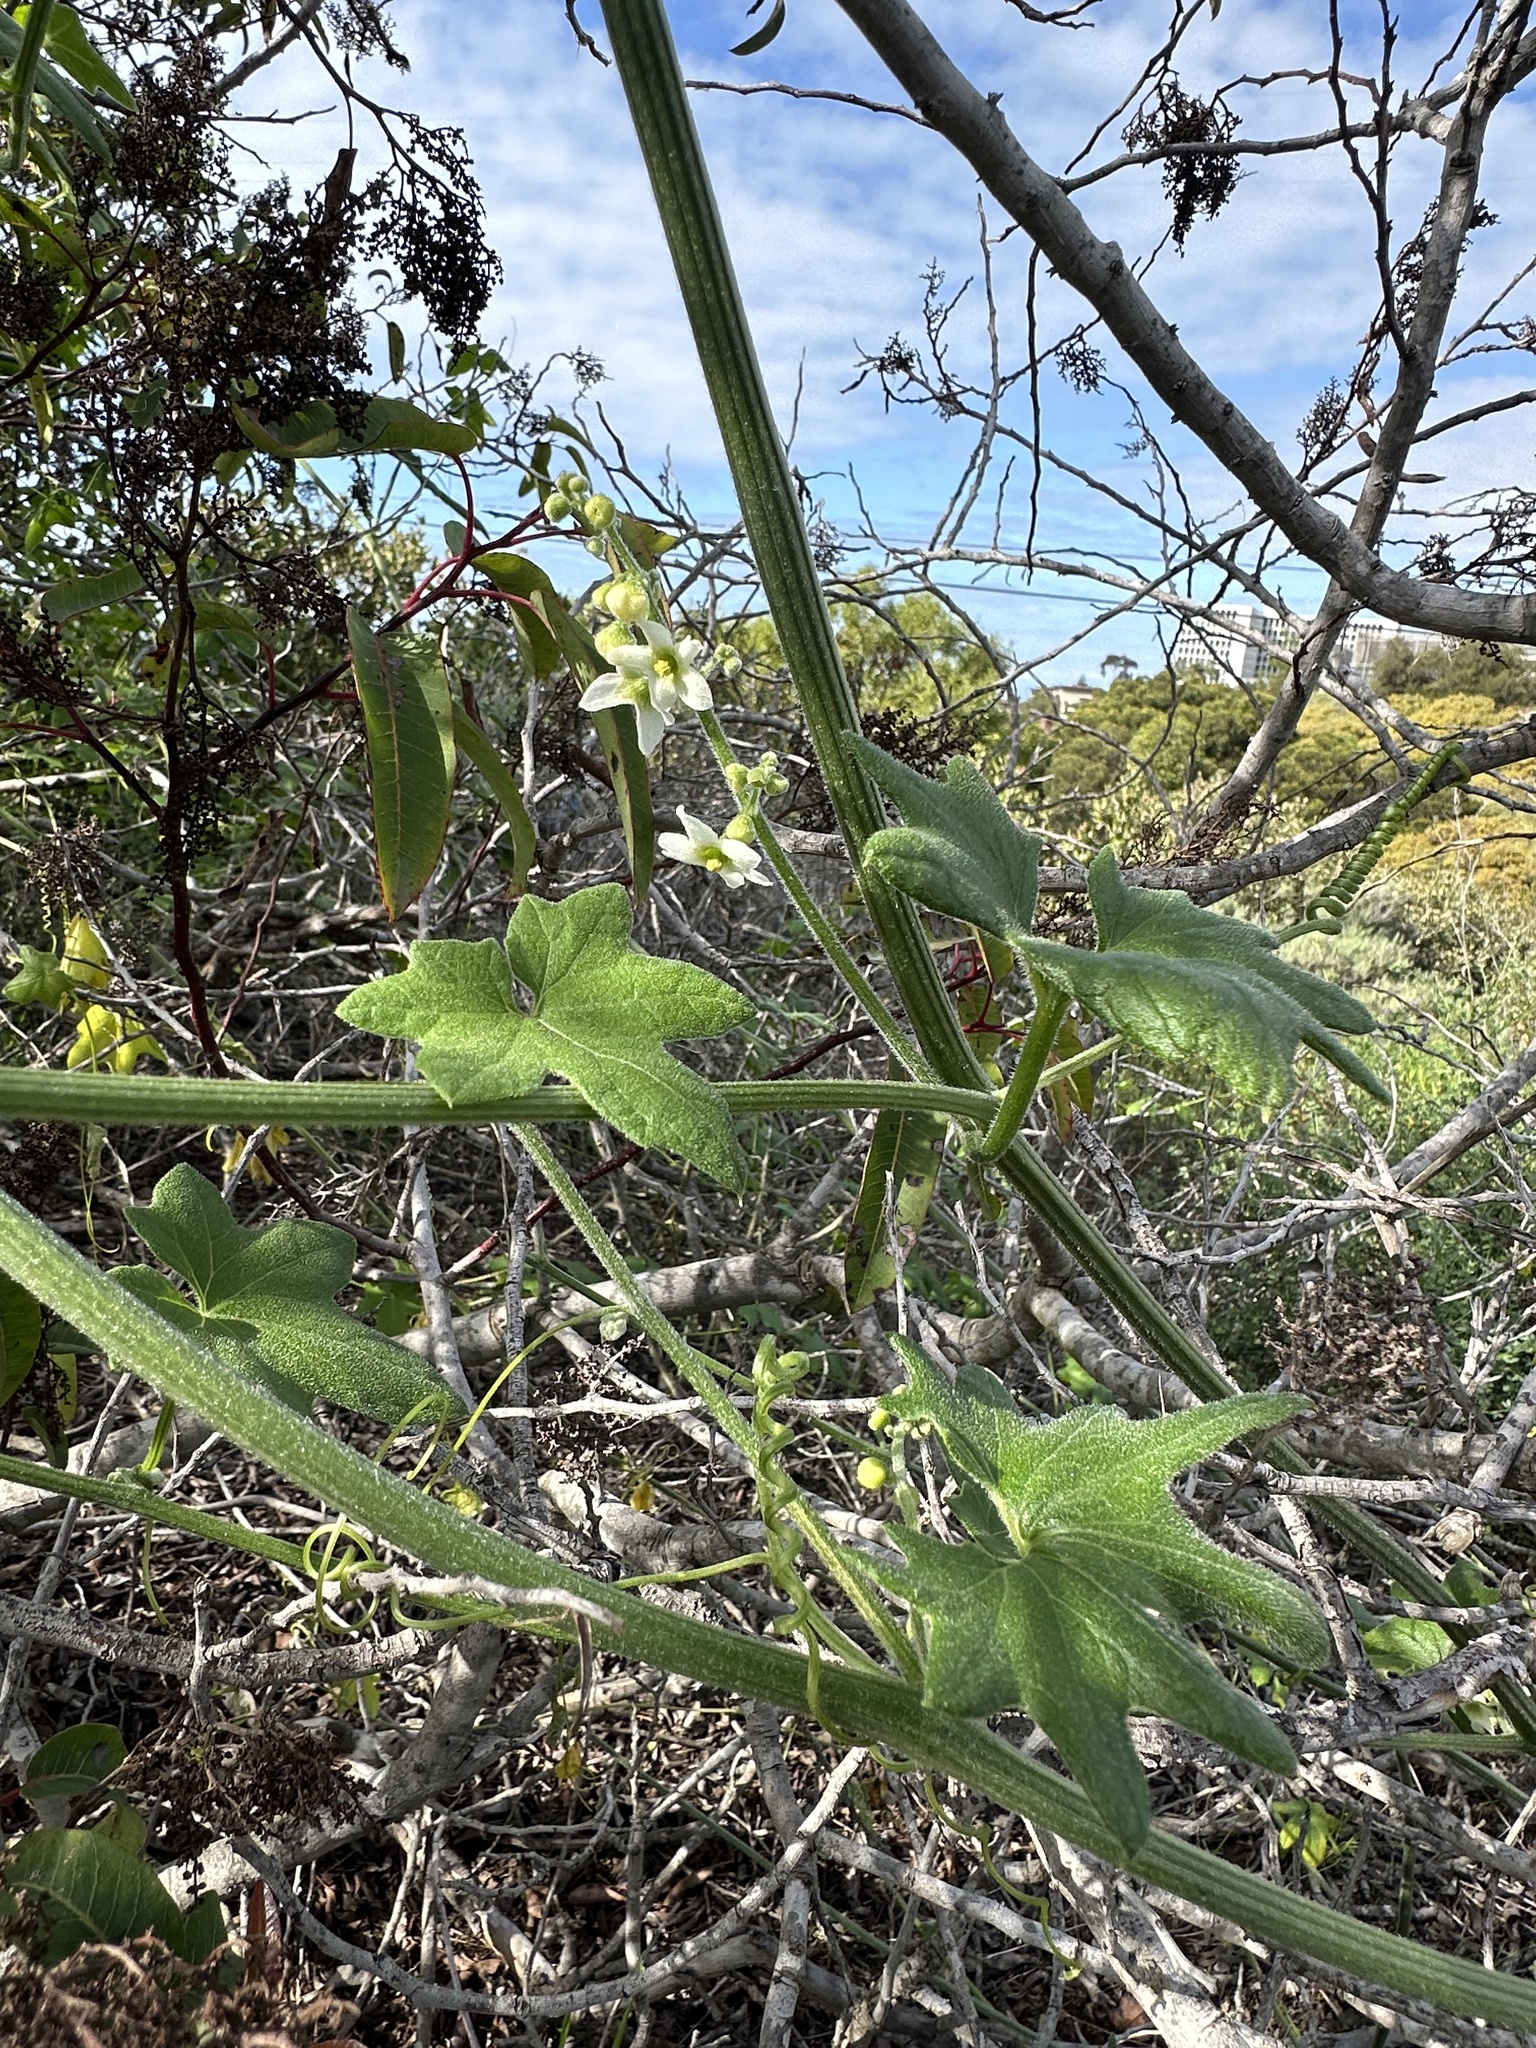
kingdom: Plantae
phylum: Tracheophyta
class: Magnoliopsida
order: Cucurbitales
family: Cucurbitaceae
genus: Marah
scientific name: Marah macrocarpa
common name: Cucamonga manroot
